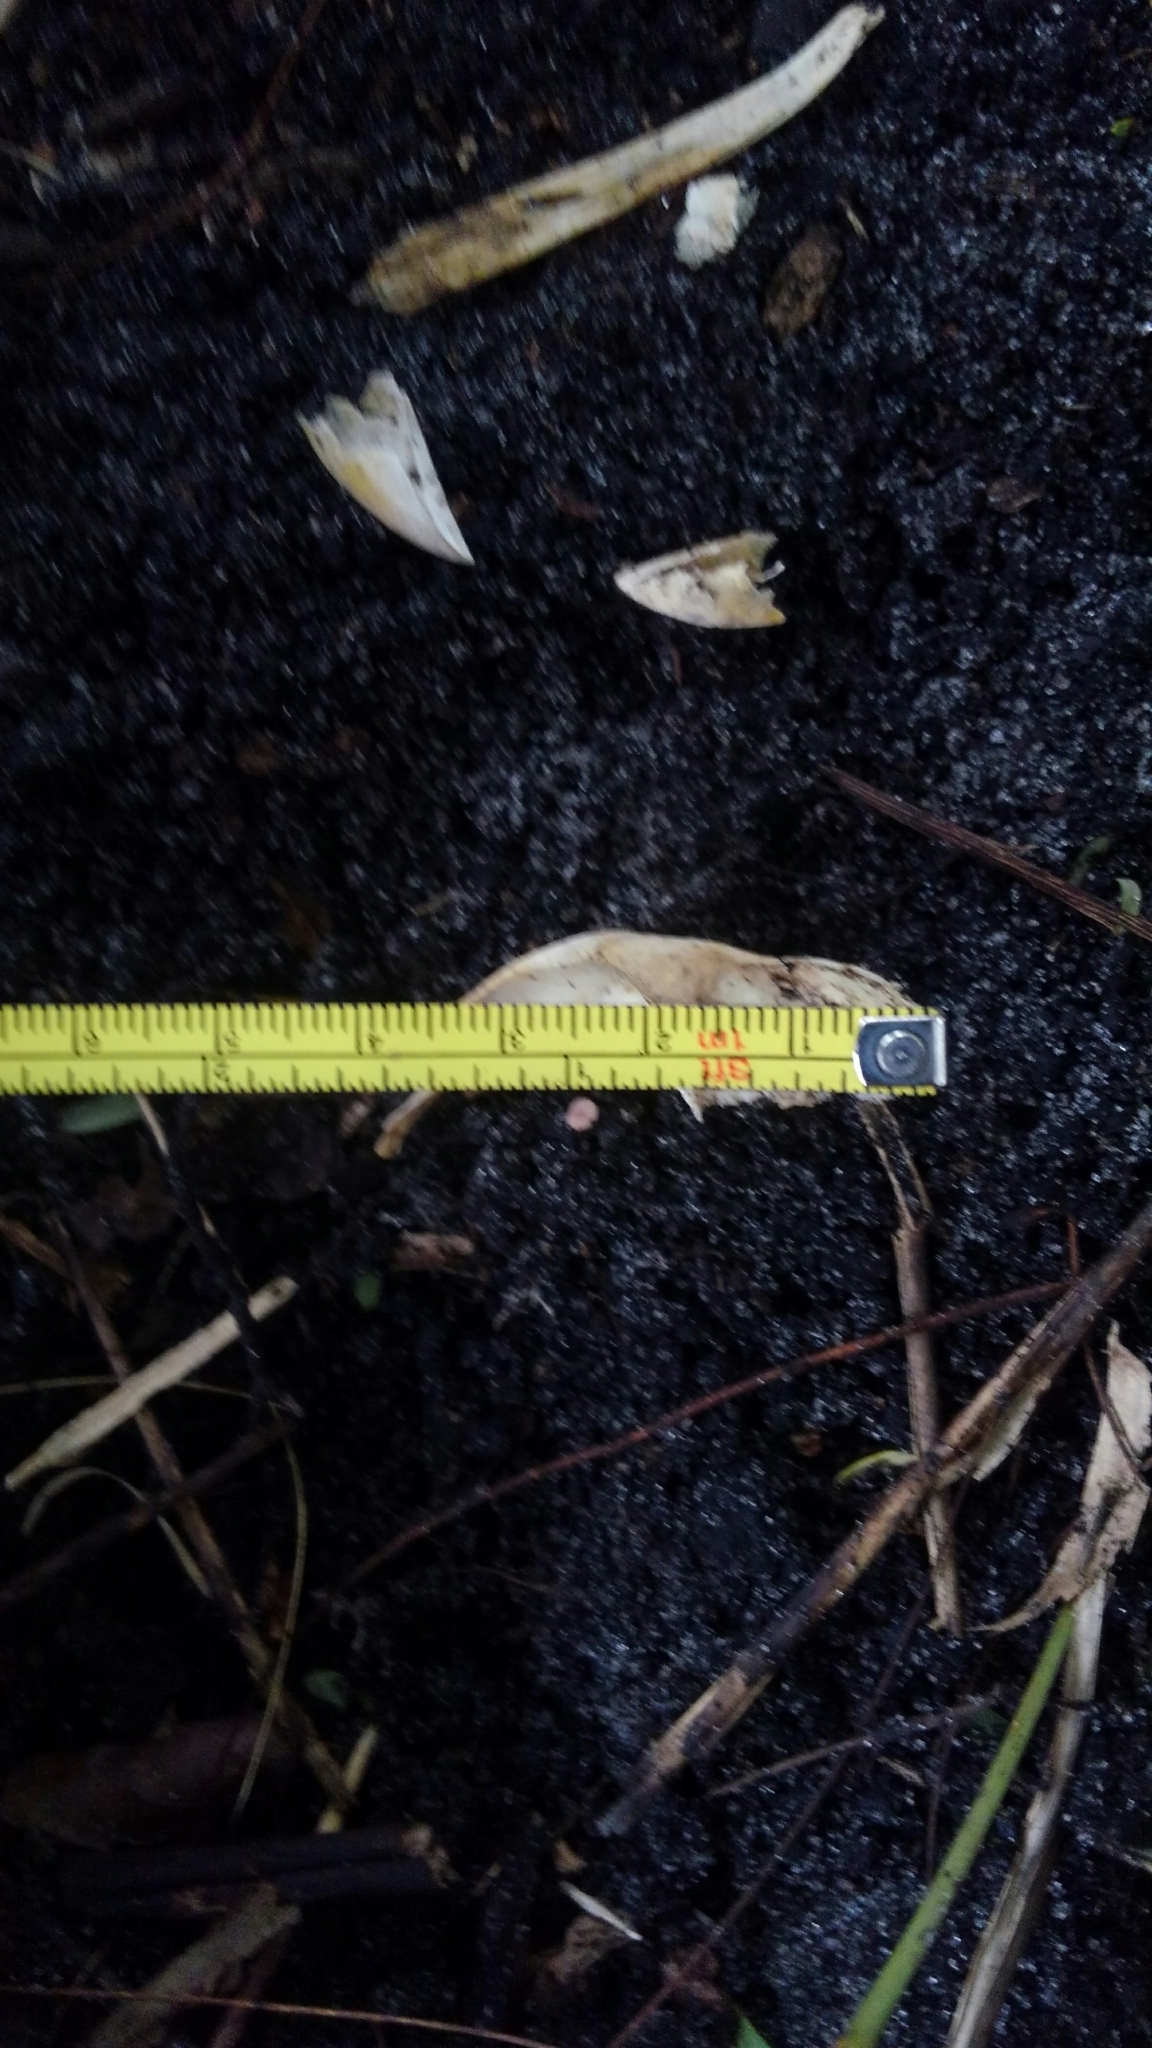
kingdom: Animalia
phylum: Chordata
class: Aves
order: Galliformes
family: Phasianidae
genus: Gallus
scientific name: Gallus gallus
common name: Red junglefowl
